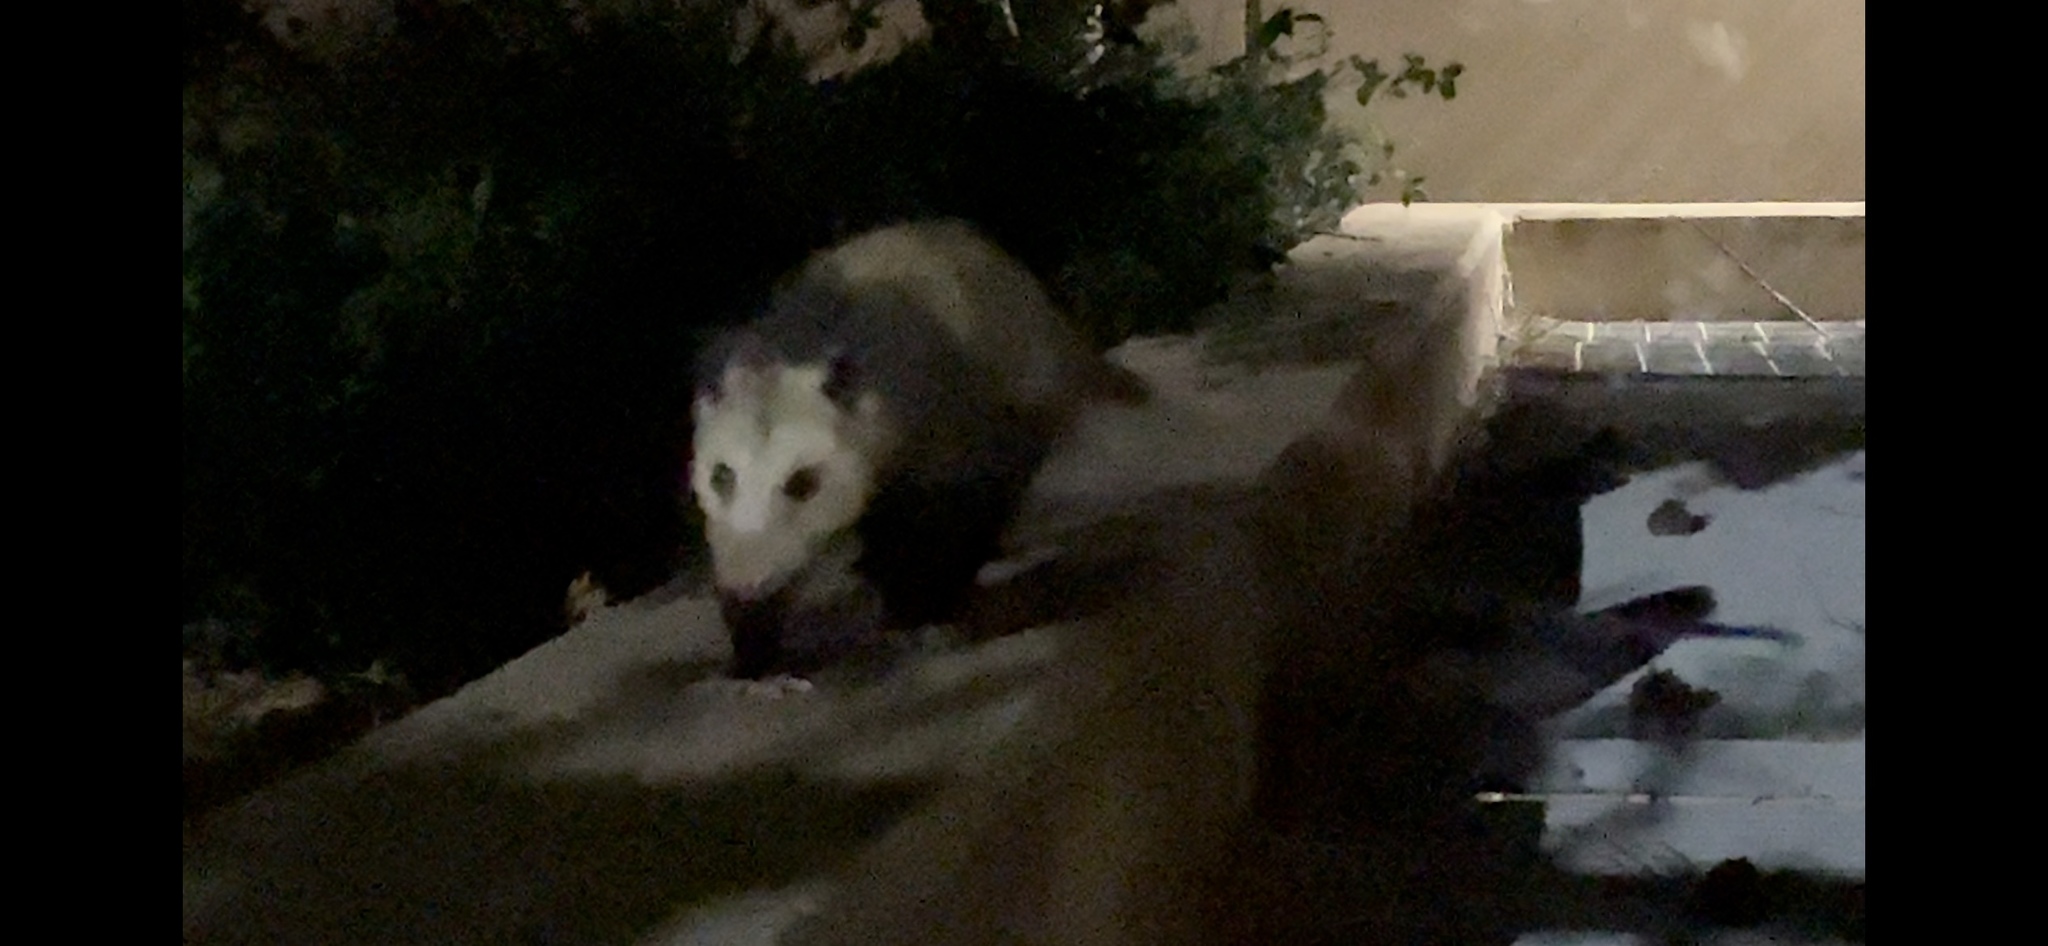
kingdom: Animalia
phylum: Chordata
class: Mammalia
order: Didelphimorphia
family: Didelphidae
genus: Didelphis
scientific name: Didelphis virginiana
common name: Virginia opossum
